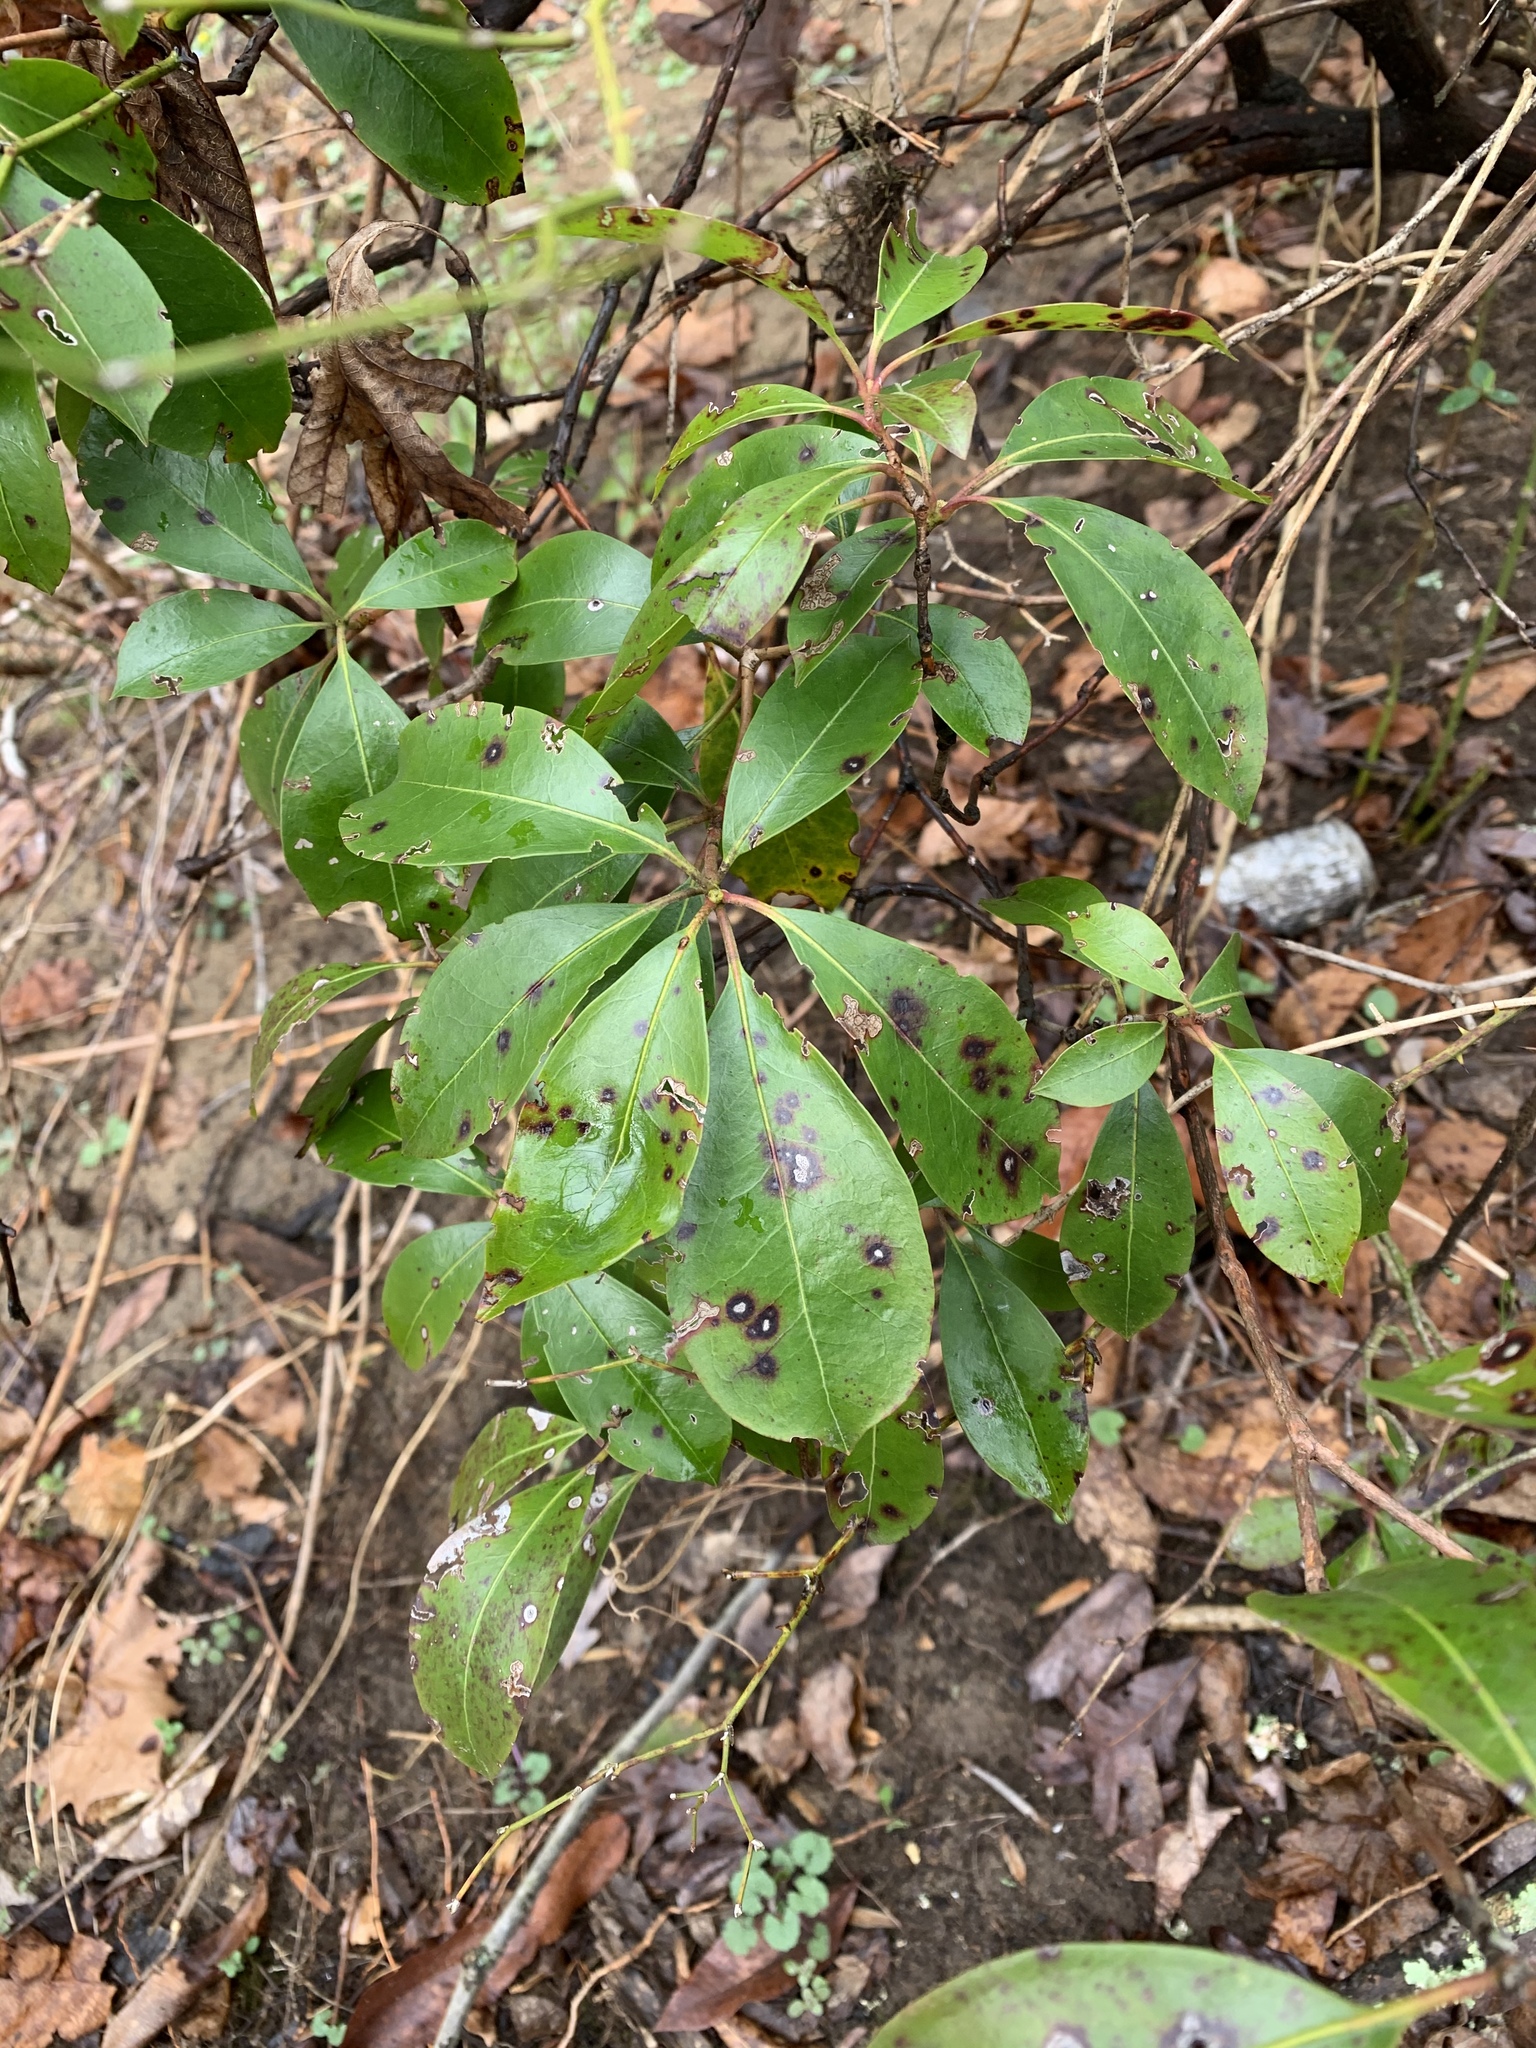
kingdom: Plantae
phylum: Tracheophyta
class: Magnoliopsida
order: Ericales
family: Ericaceae
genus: Kalmia
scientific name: Kalmia latifolia
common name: Mountain-laurel
